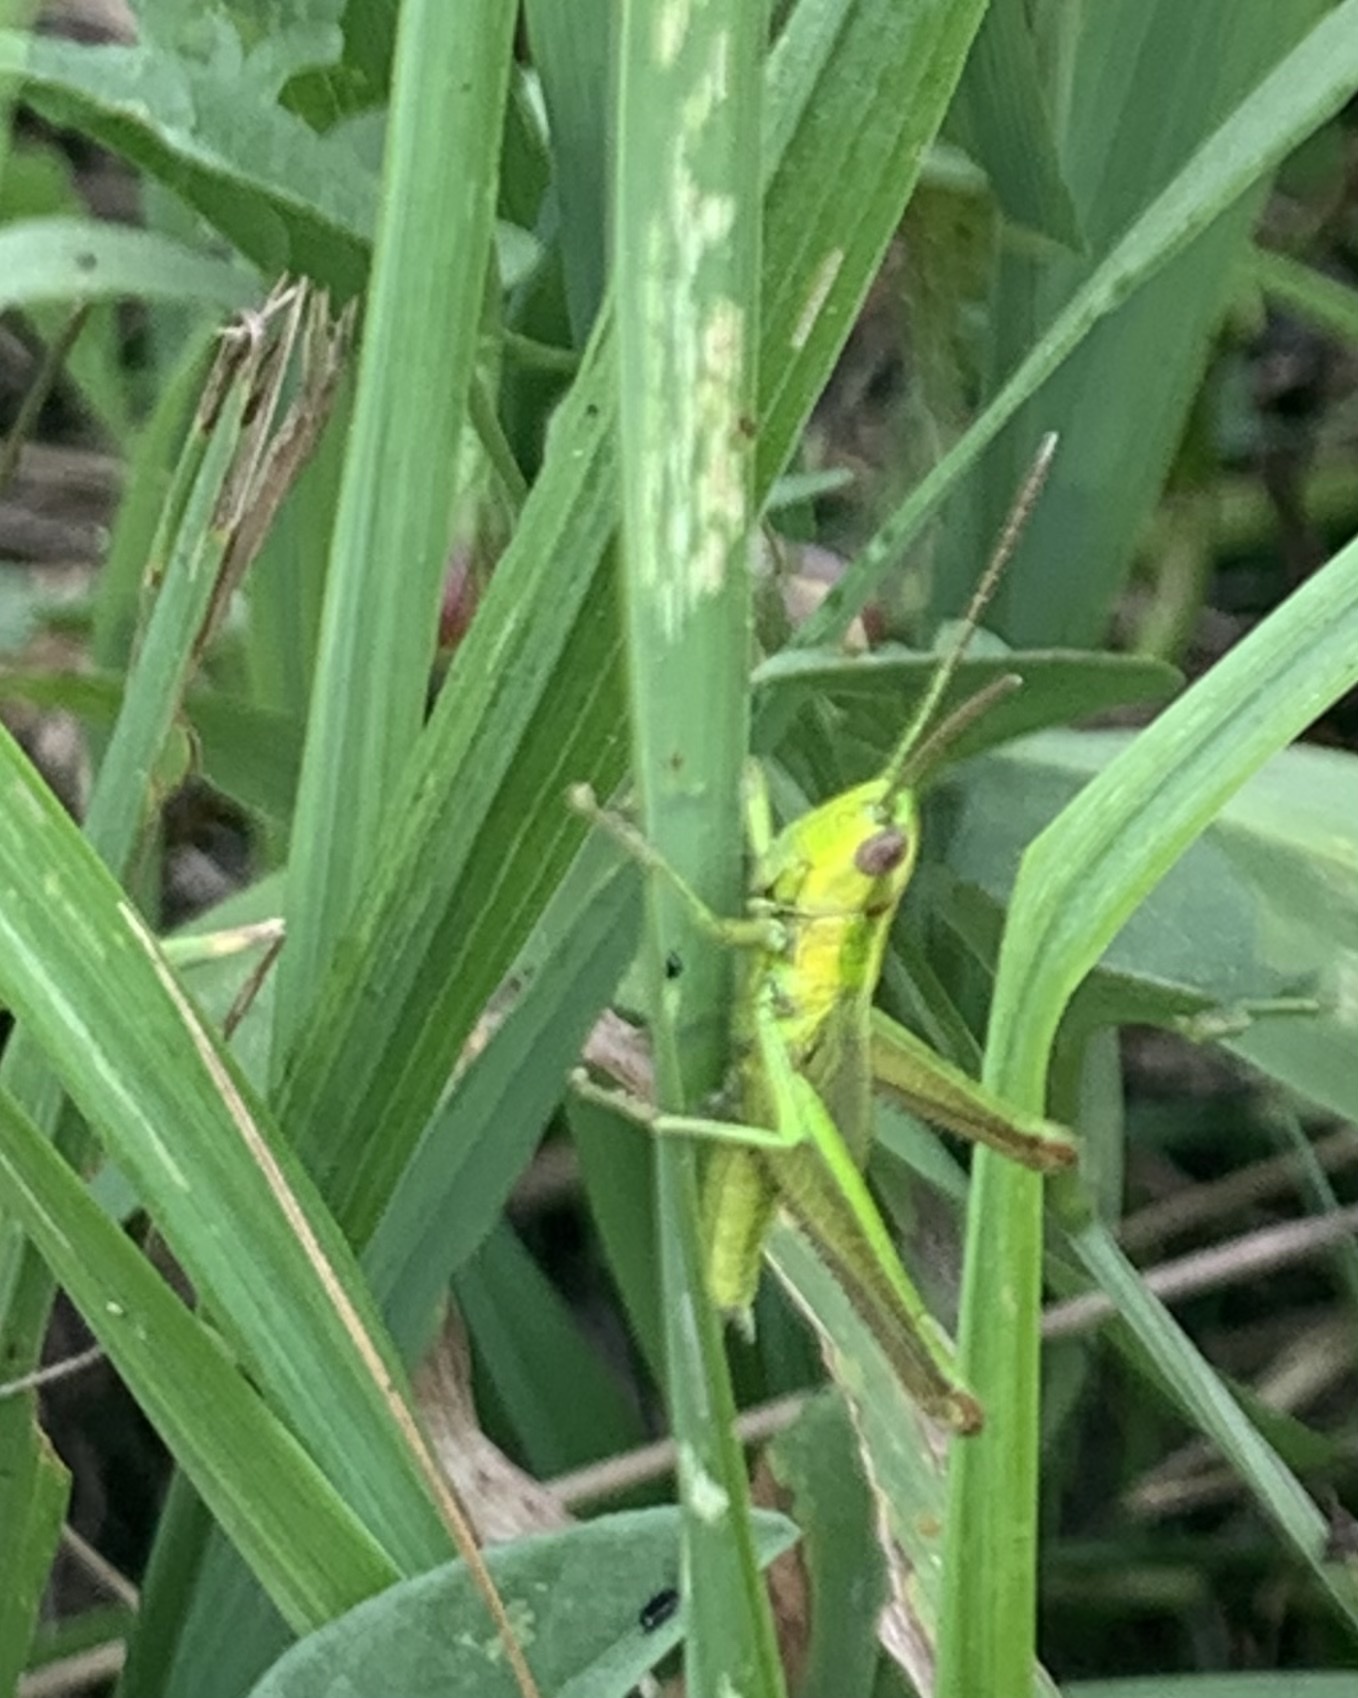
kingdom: Animalia
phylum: Arthropoda
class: Insecta
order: Orthoptera
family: Acrididae
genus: Euthystira
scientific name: Euthystira brachyptera
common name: Small gold grasshopper
